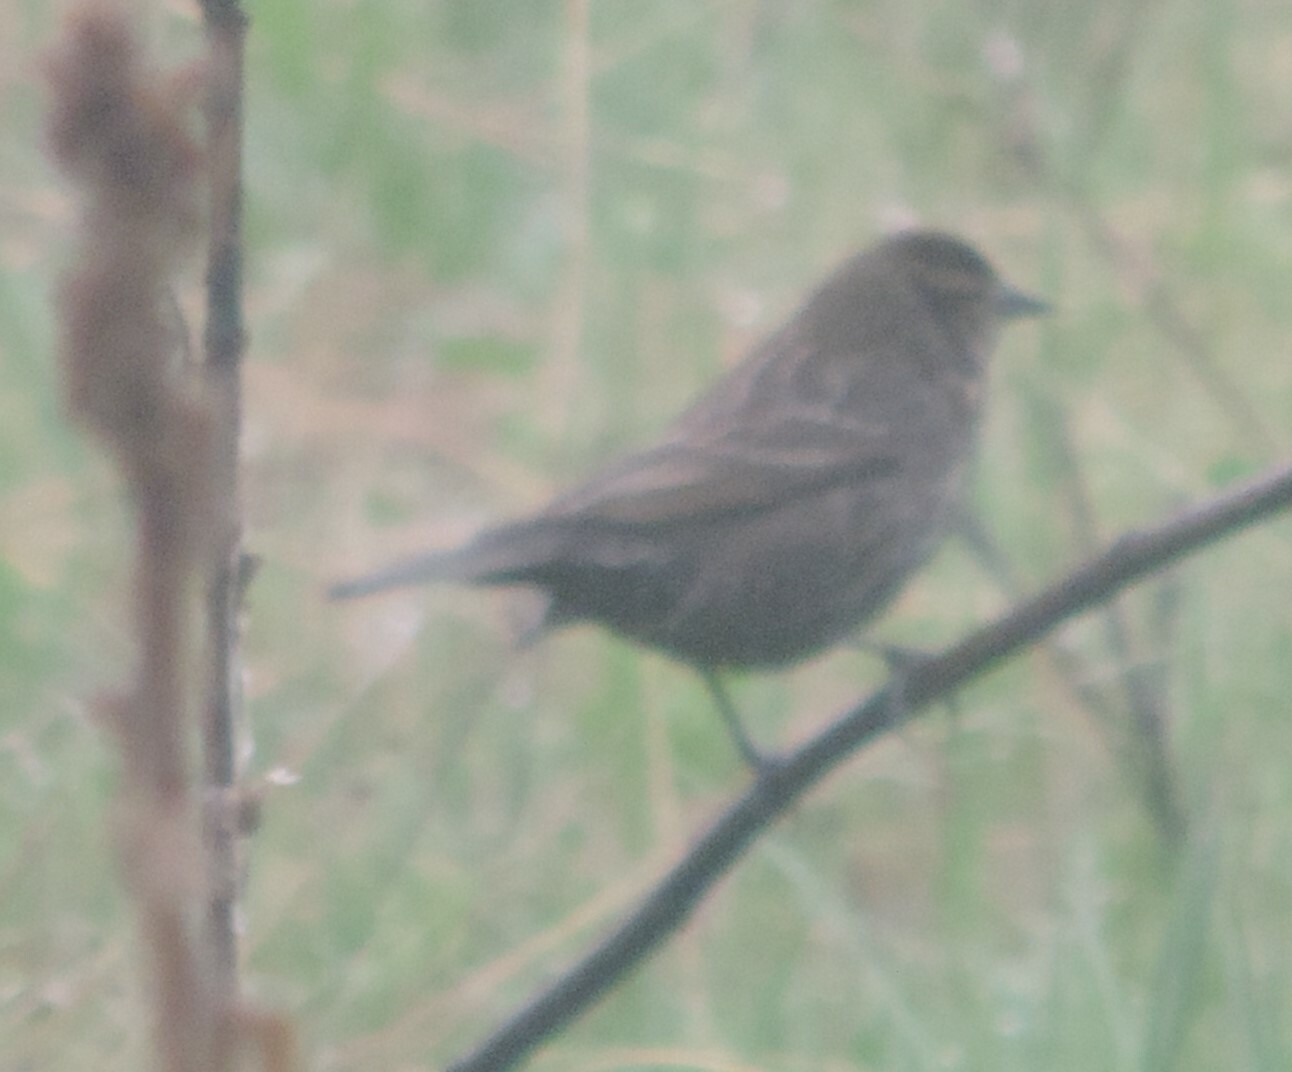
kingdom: Animalia
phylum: Chordata
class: Aves
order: Passeriformes
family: Icteridae
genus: Agelaius
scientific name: Agelaius phoeniceus
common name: Red-winged blackbird
